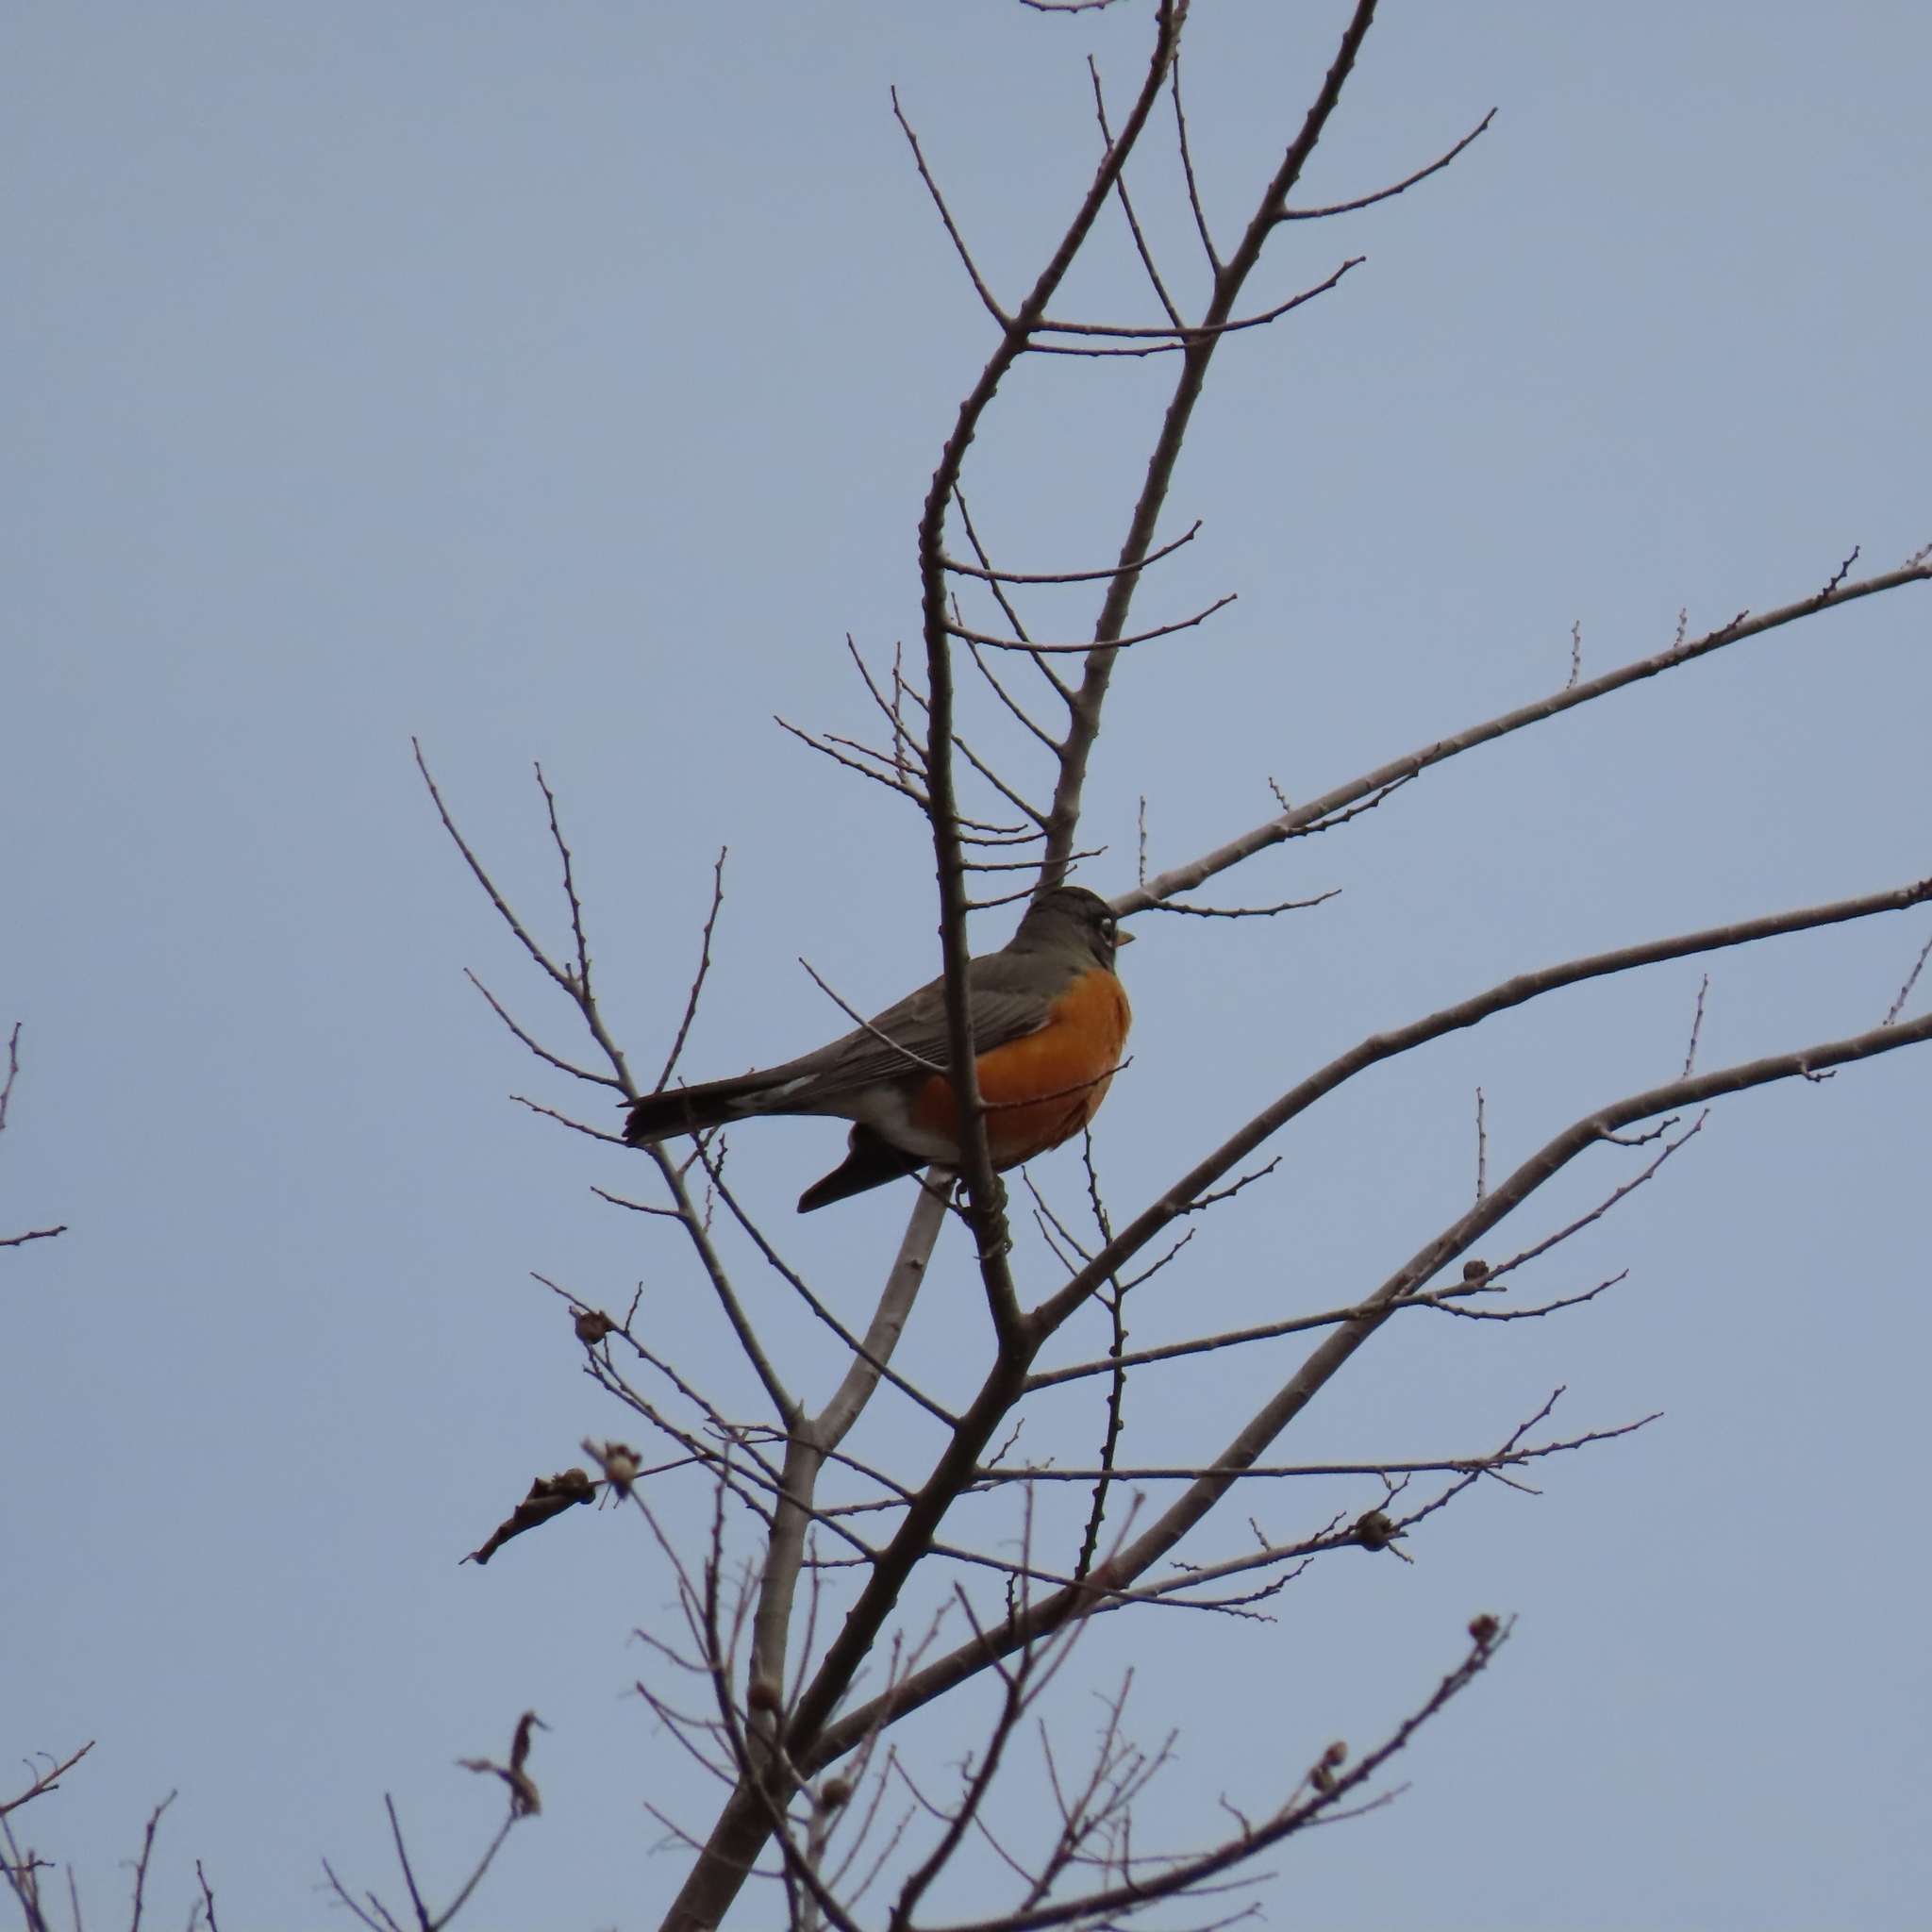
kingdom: Animalia
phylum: Chordata
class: Aves
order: Passeriformes
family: Turdidae
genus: Turdus
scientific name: Turdus migratorius
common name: American robin
